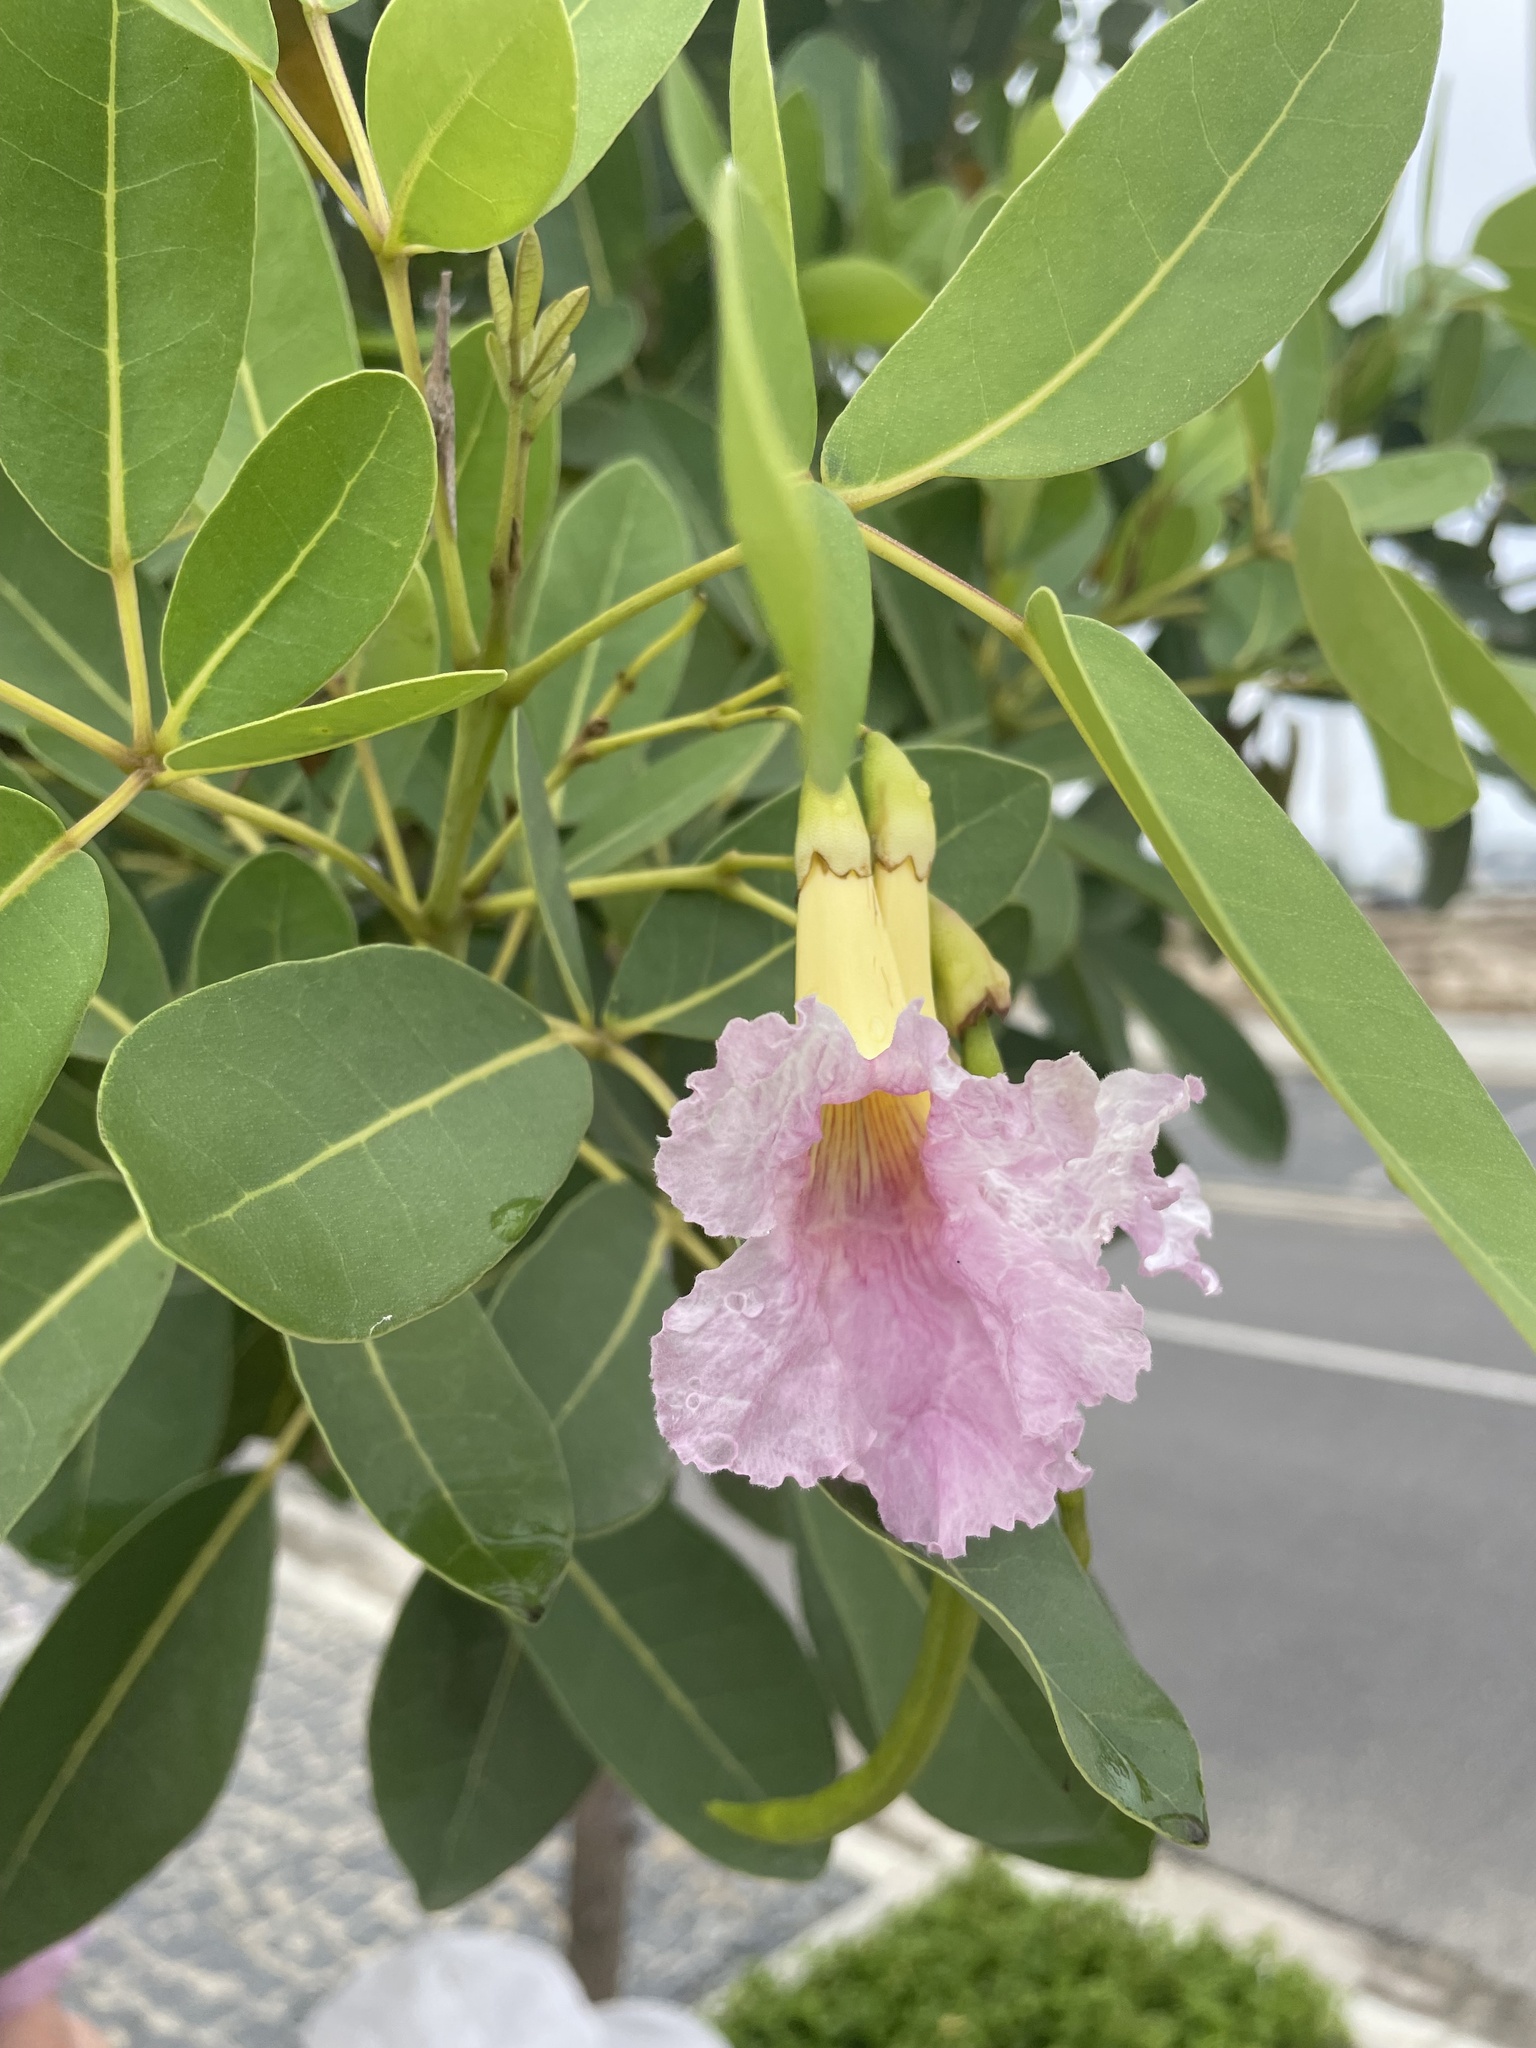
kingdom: Plantae
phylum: Tracheophyta
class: Magnoliopsida
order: Lamiales
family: Bignoniaceae
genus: Tabebuia
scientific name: Tabebuia heterophylla
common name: White cedar
